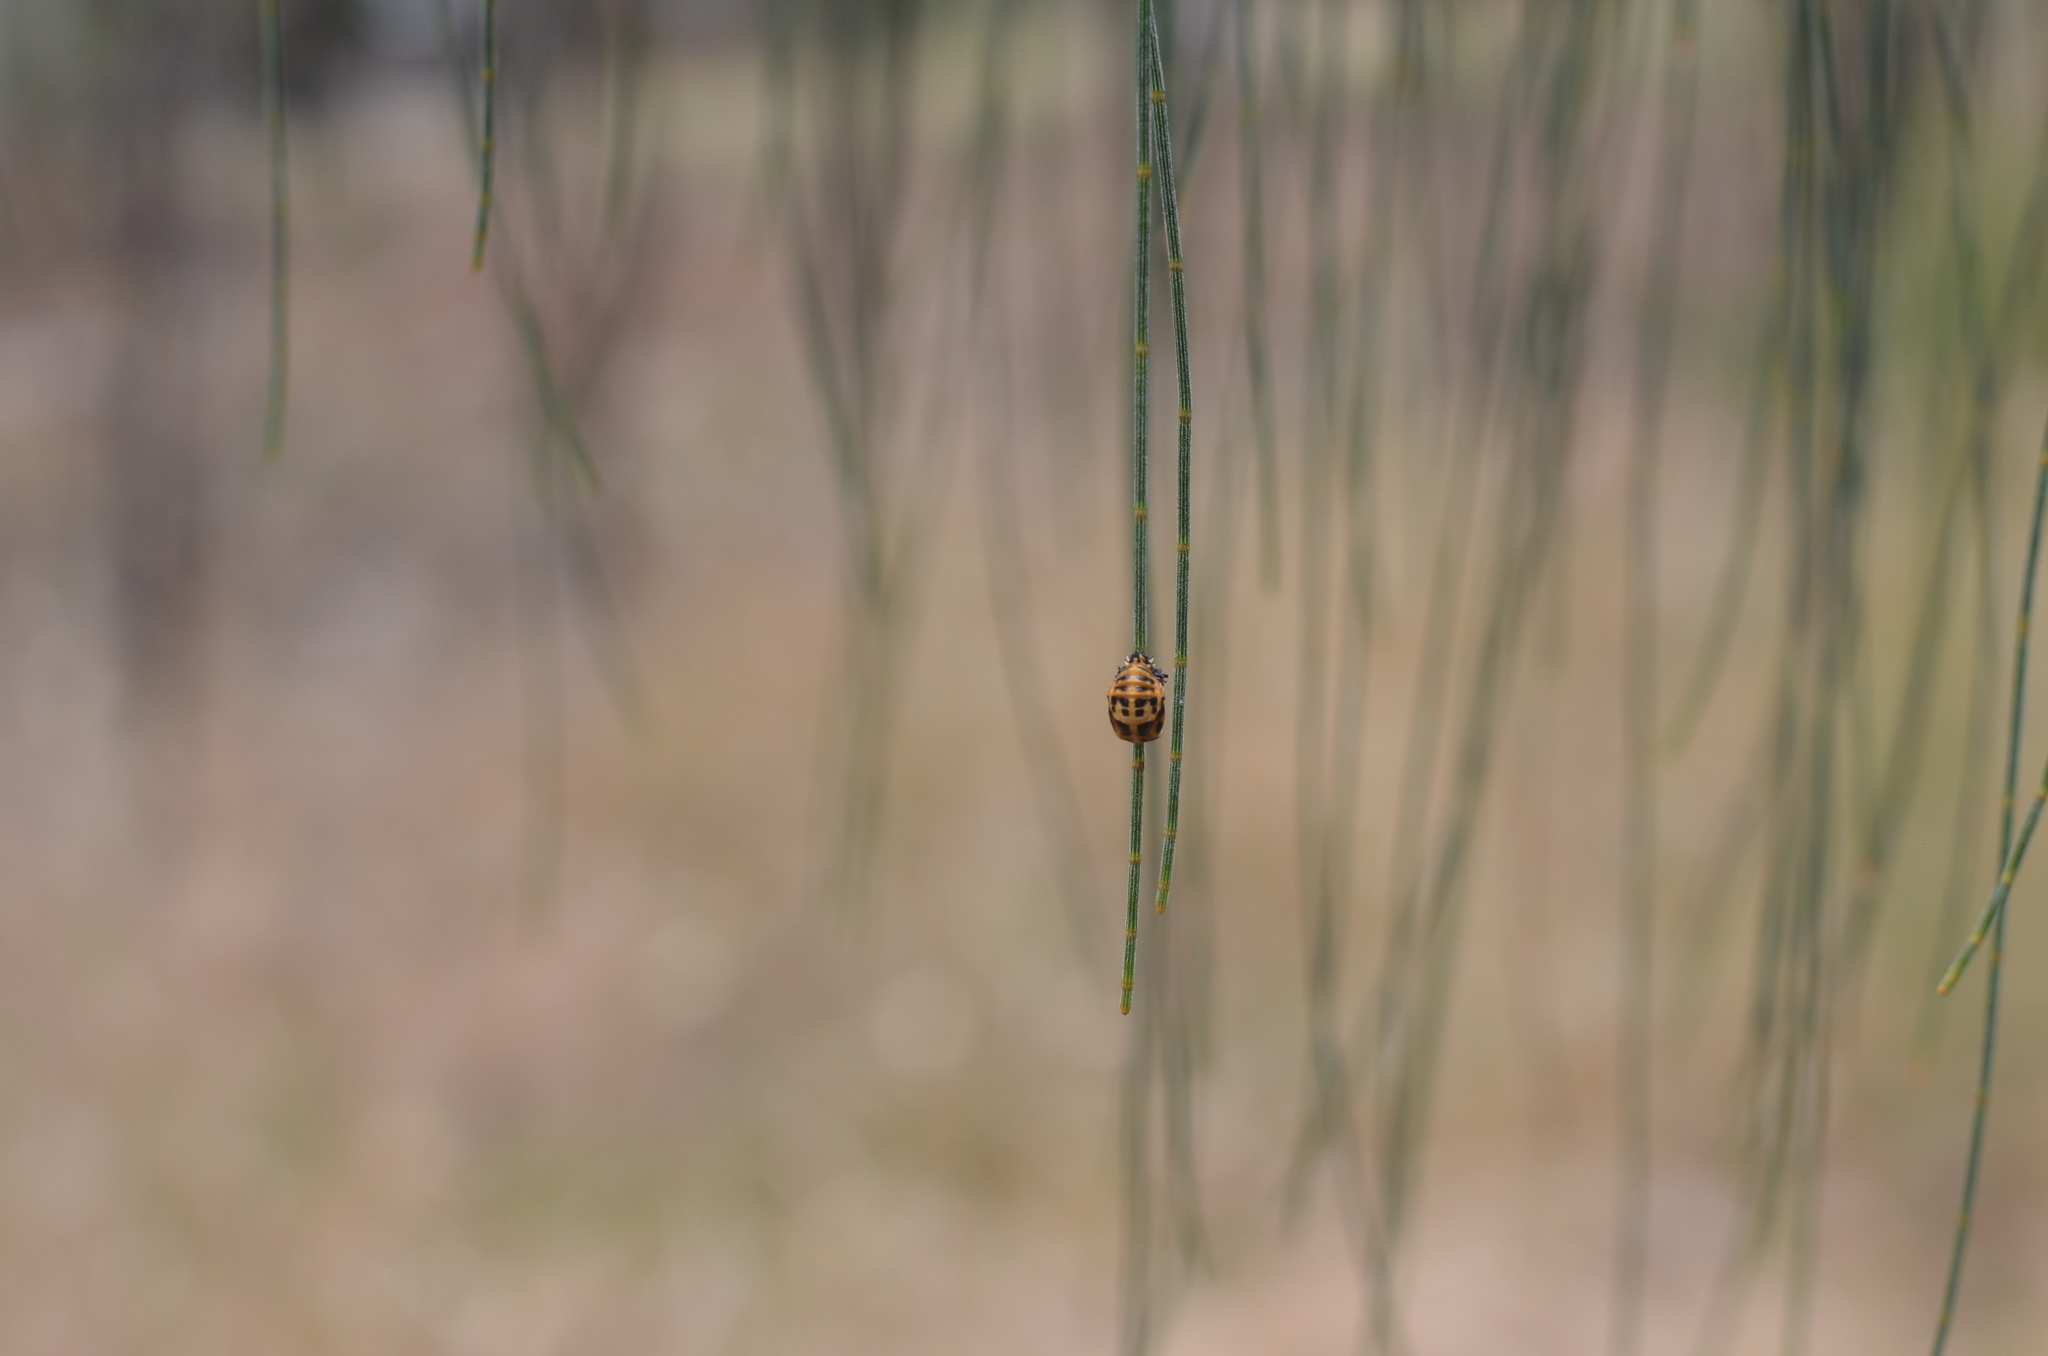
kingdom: Animalia
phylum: Arthropoda
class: Insecta
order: Coleoptera
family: Coccinellidae
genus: Harmonia
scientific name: Harmonia conformis
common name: Common spotted ladybird beetle
